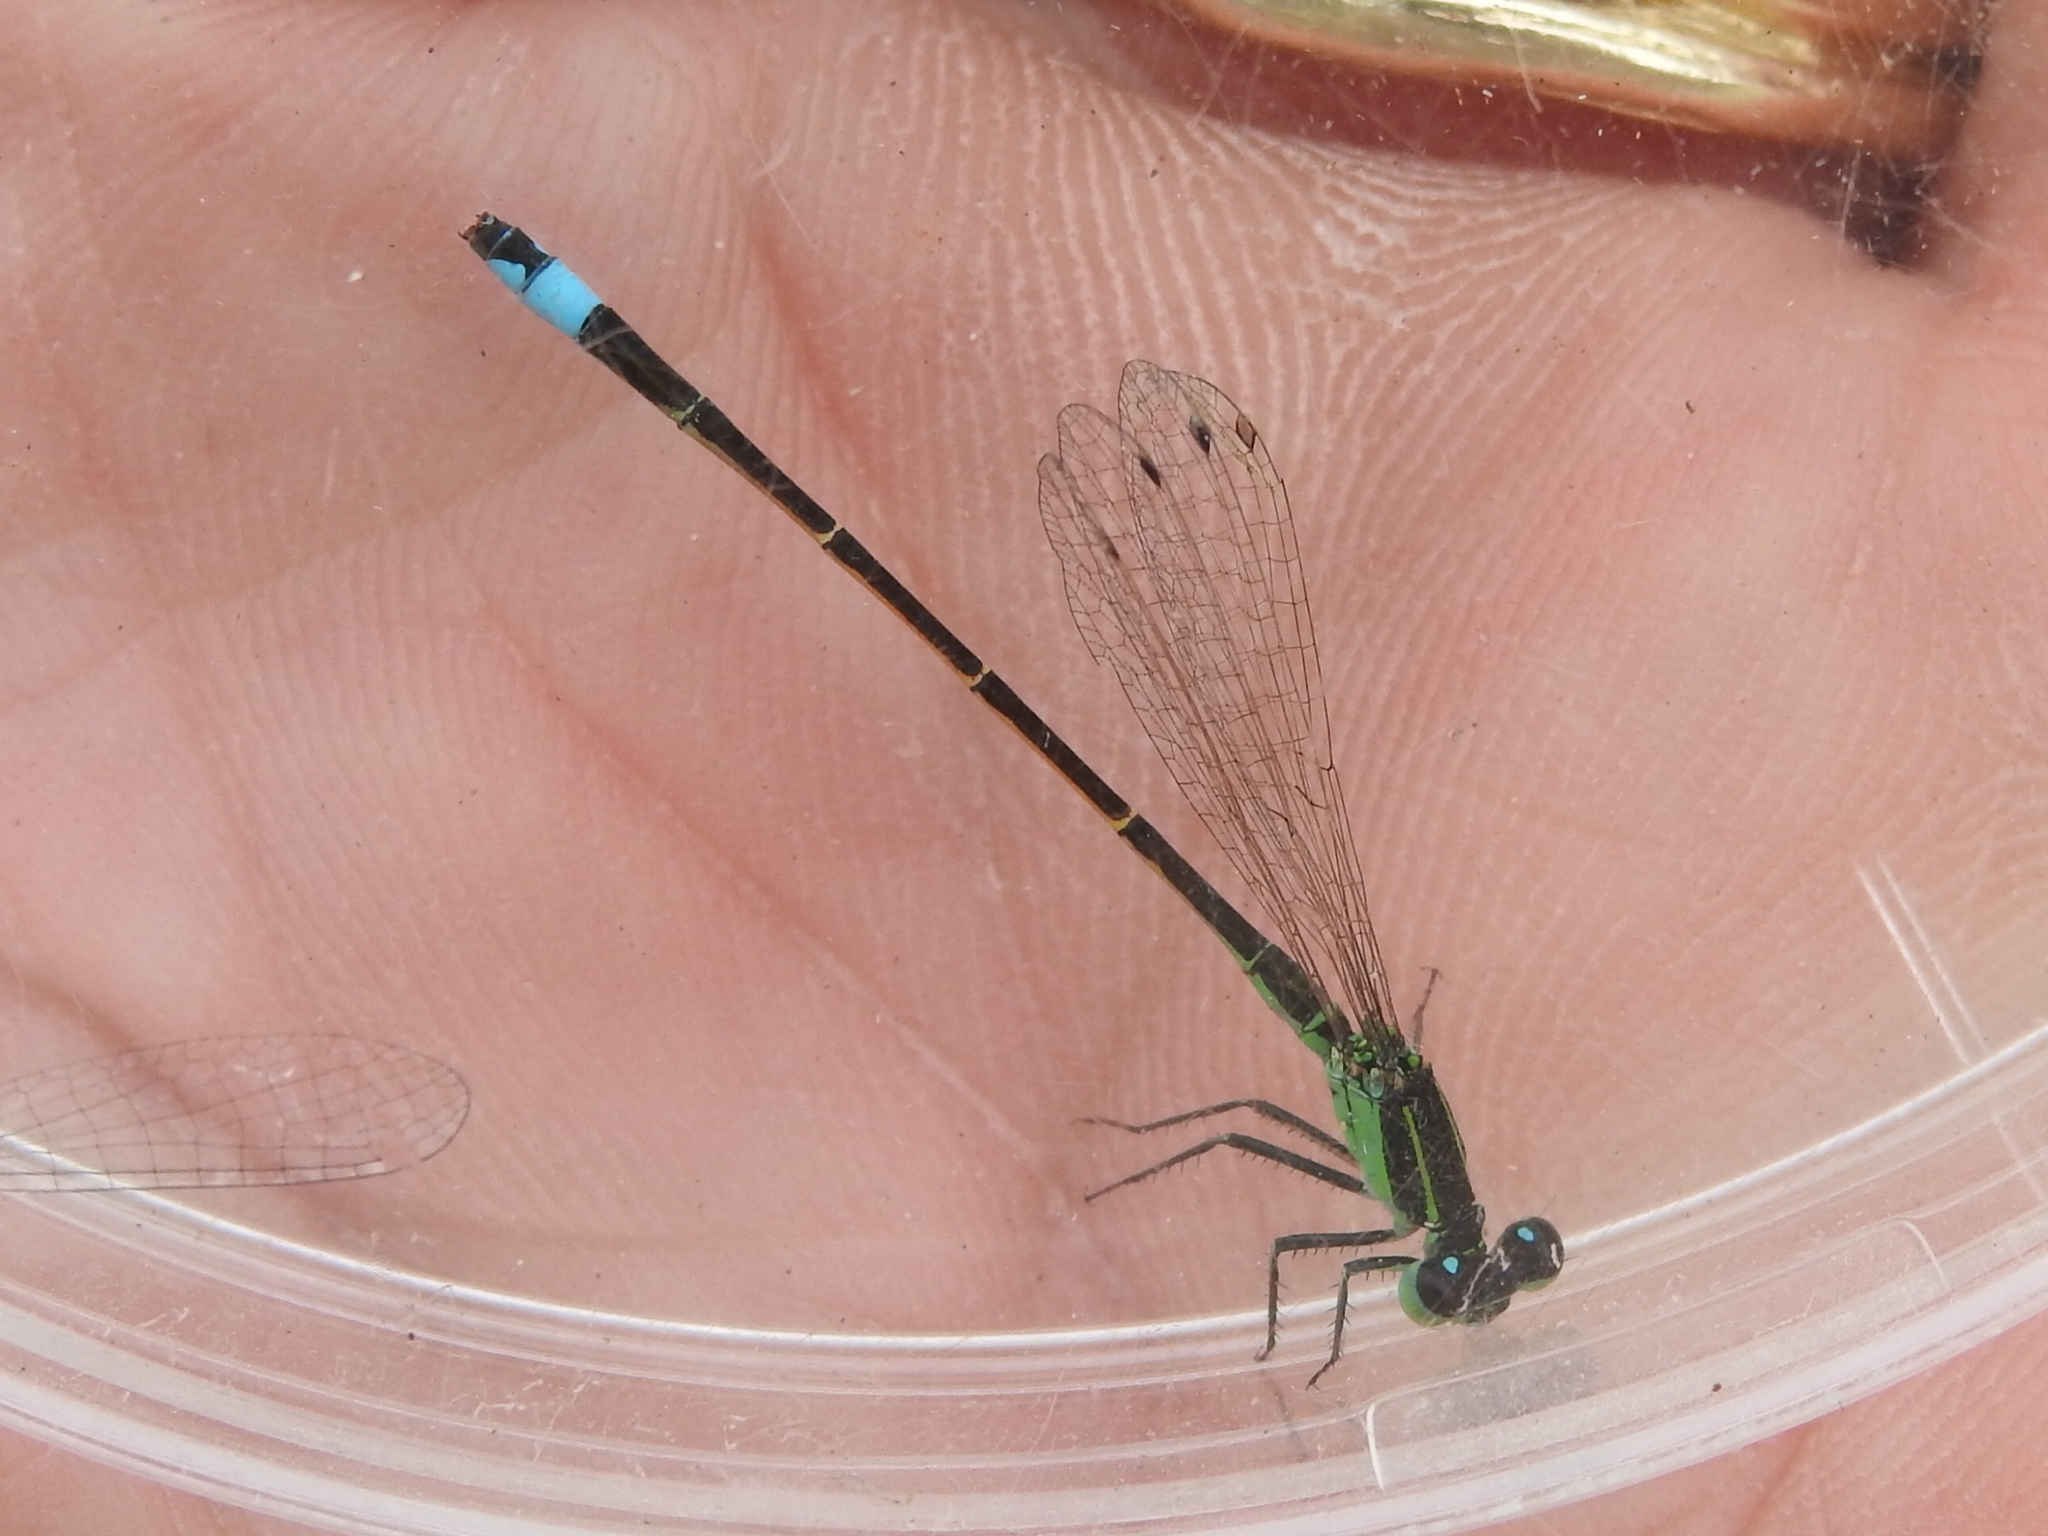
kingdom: Animalia
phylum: Arthropoda
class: Insecta
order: Odonata
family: Coenagrionidae
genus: Ischnura
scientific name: Ischnura ramburii
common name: Rambur's forktail
